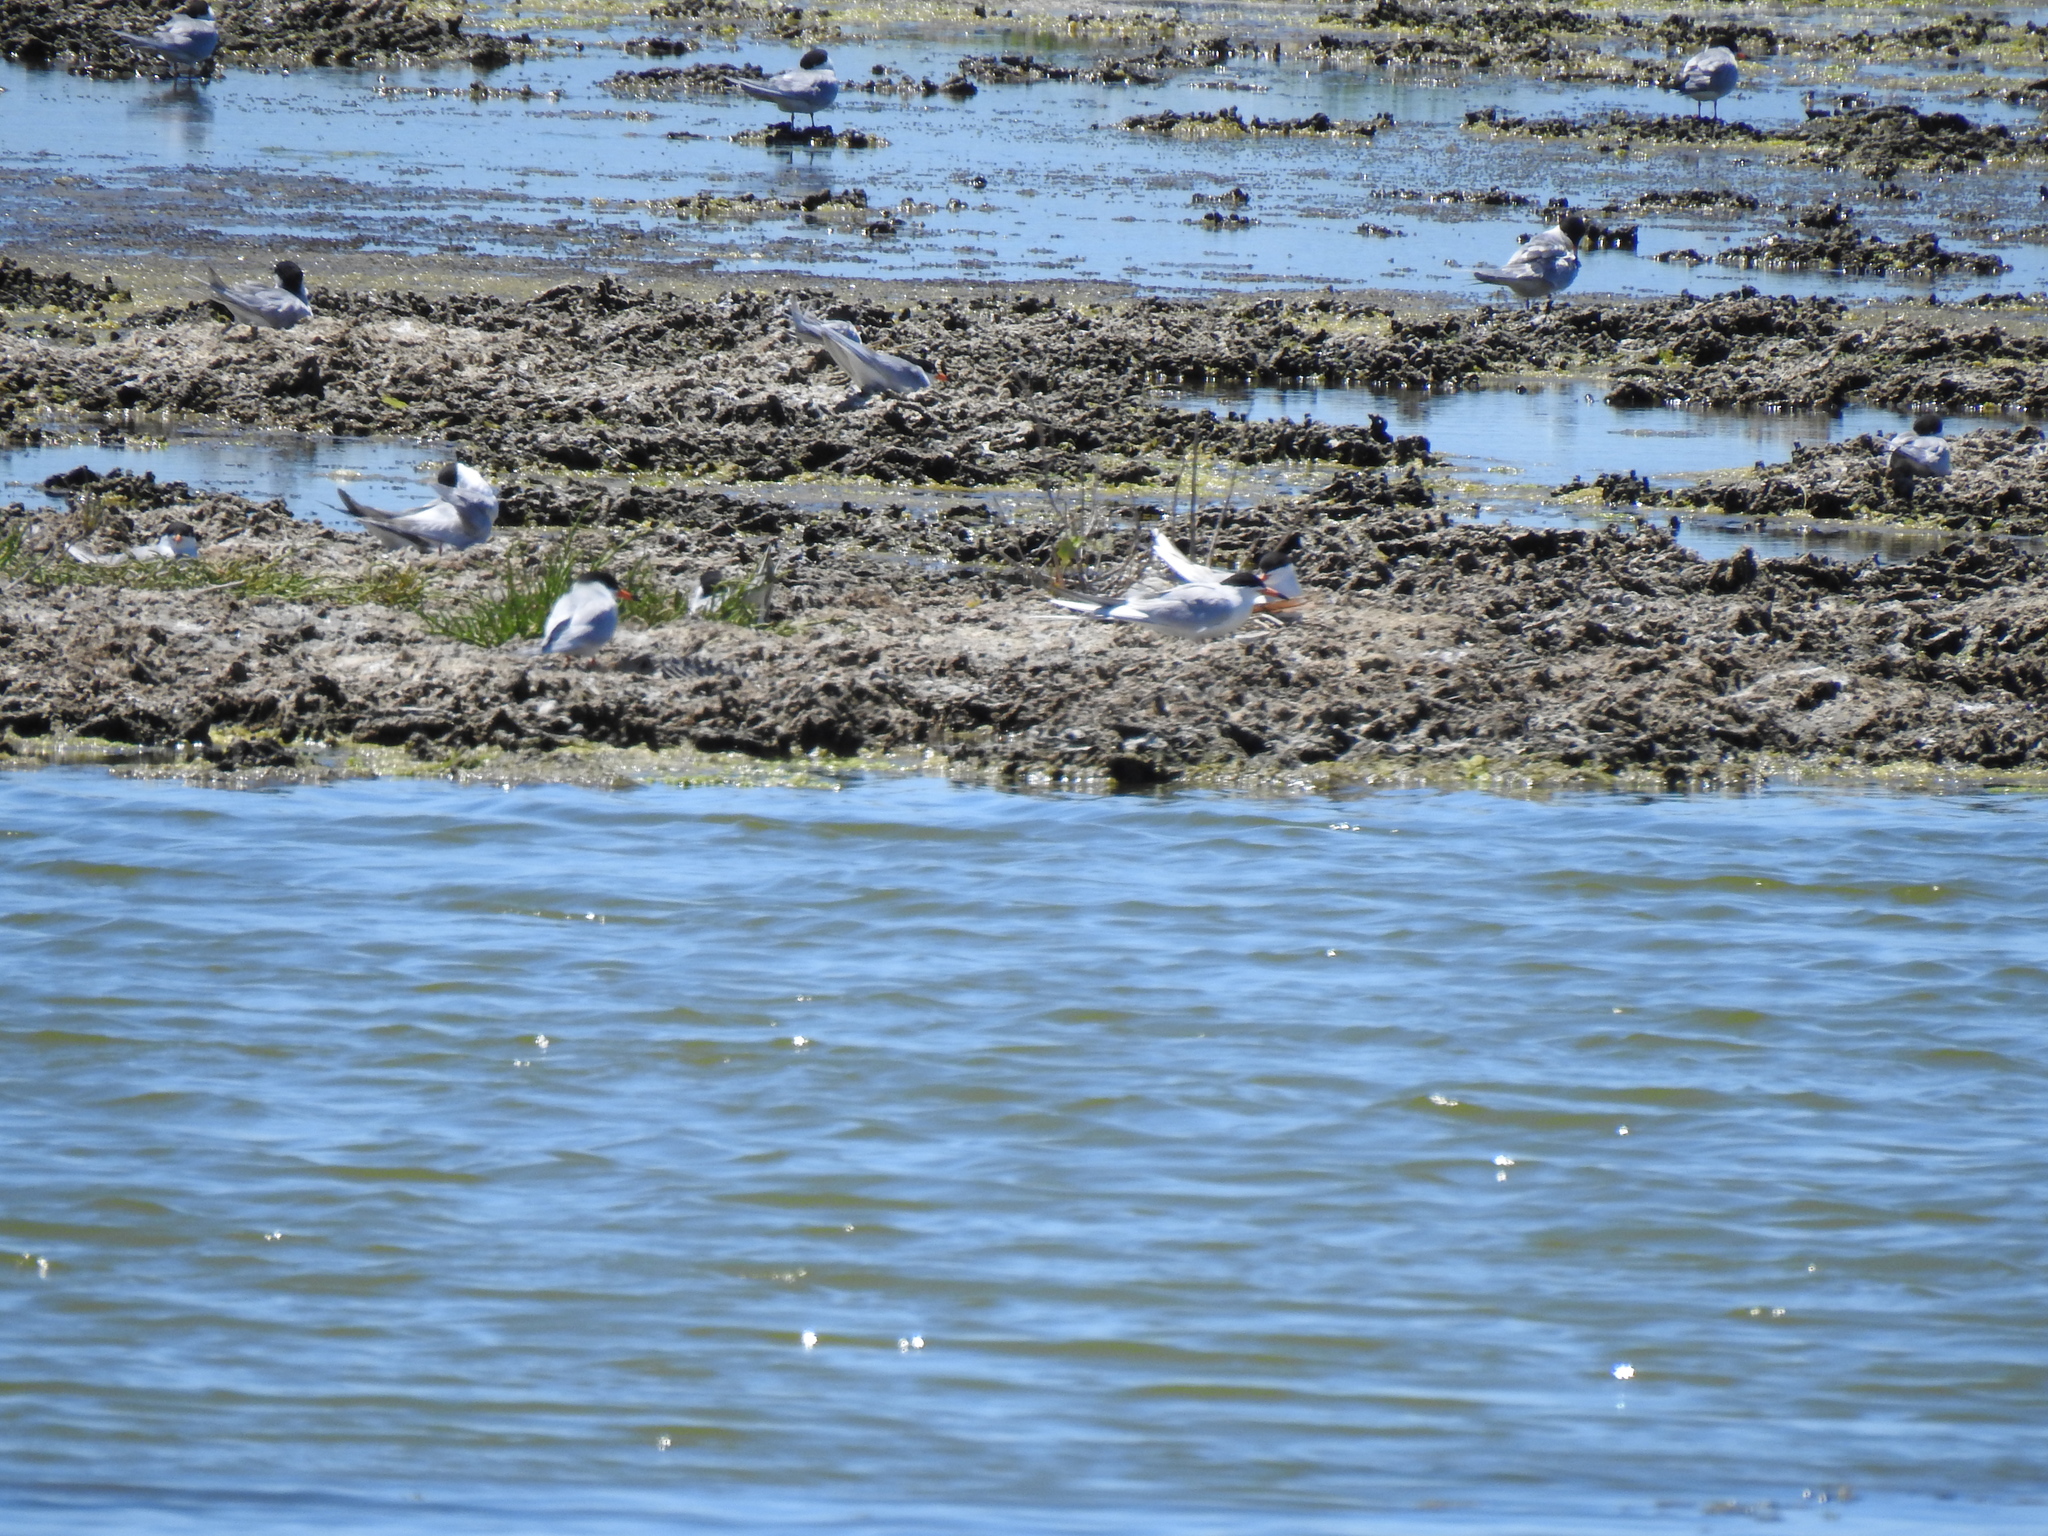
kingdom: Animalia
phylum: Chordata
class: Aves
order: Charadriiformes
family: Laridae
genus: Sterna
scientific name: Sterna forsteri
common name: Forster's tern
